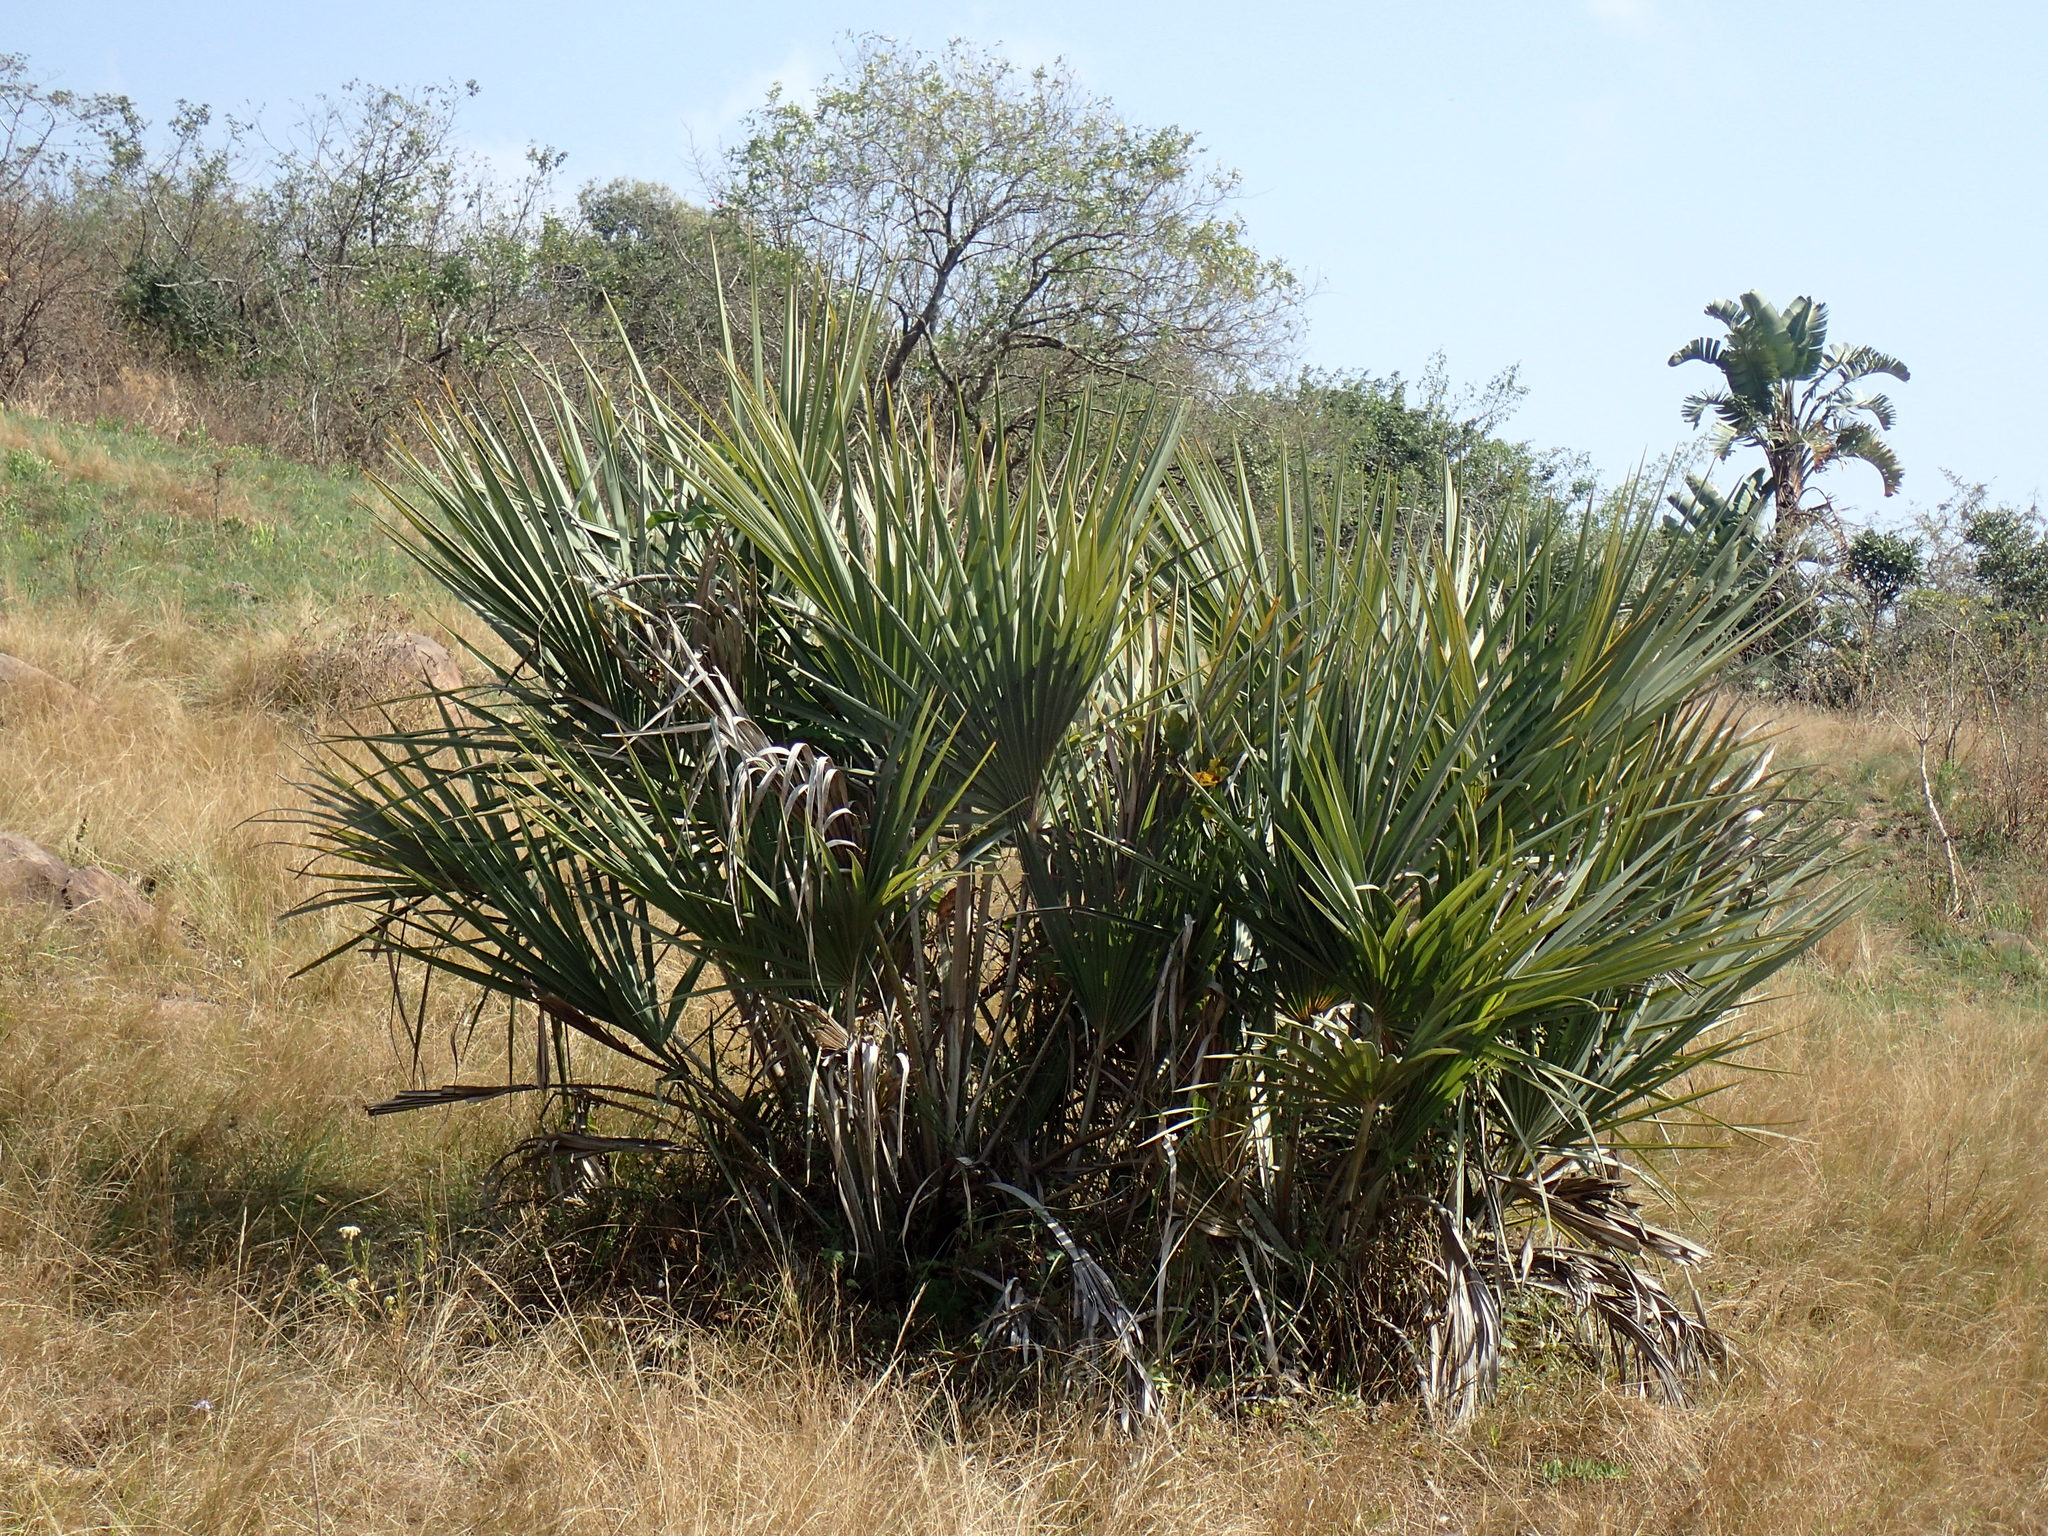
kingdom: Plantae
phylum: Tracheophyta
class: Liliopsida
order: Arecales
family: Arecaceae
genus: Hyphaene
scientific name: Hyphaene coriacea
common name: Ilala palm
